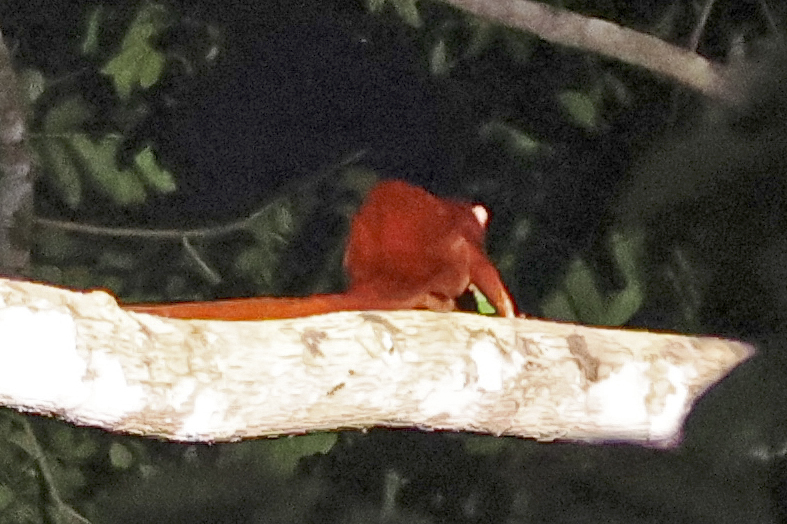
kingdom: Animalia
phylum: Chordata
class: Mammalia
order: Rodentia
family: Sciuridae
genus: Aeromys
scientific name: Aeromys thomasi
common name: Thomas's flying squirrel
